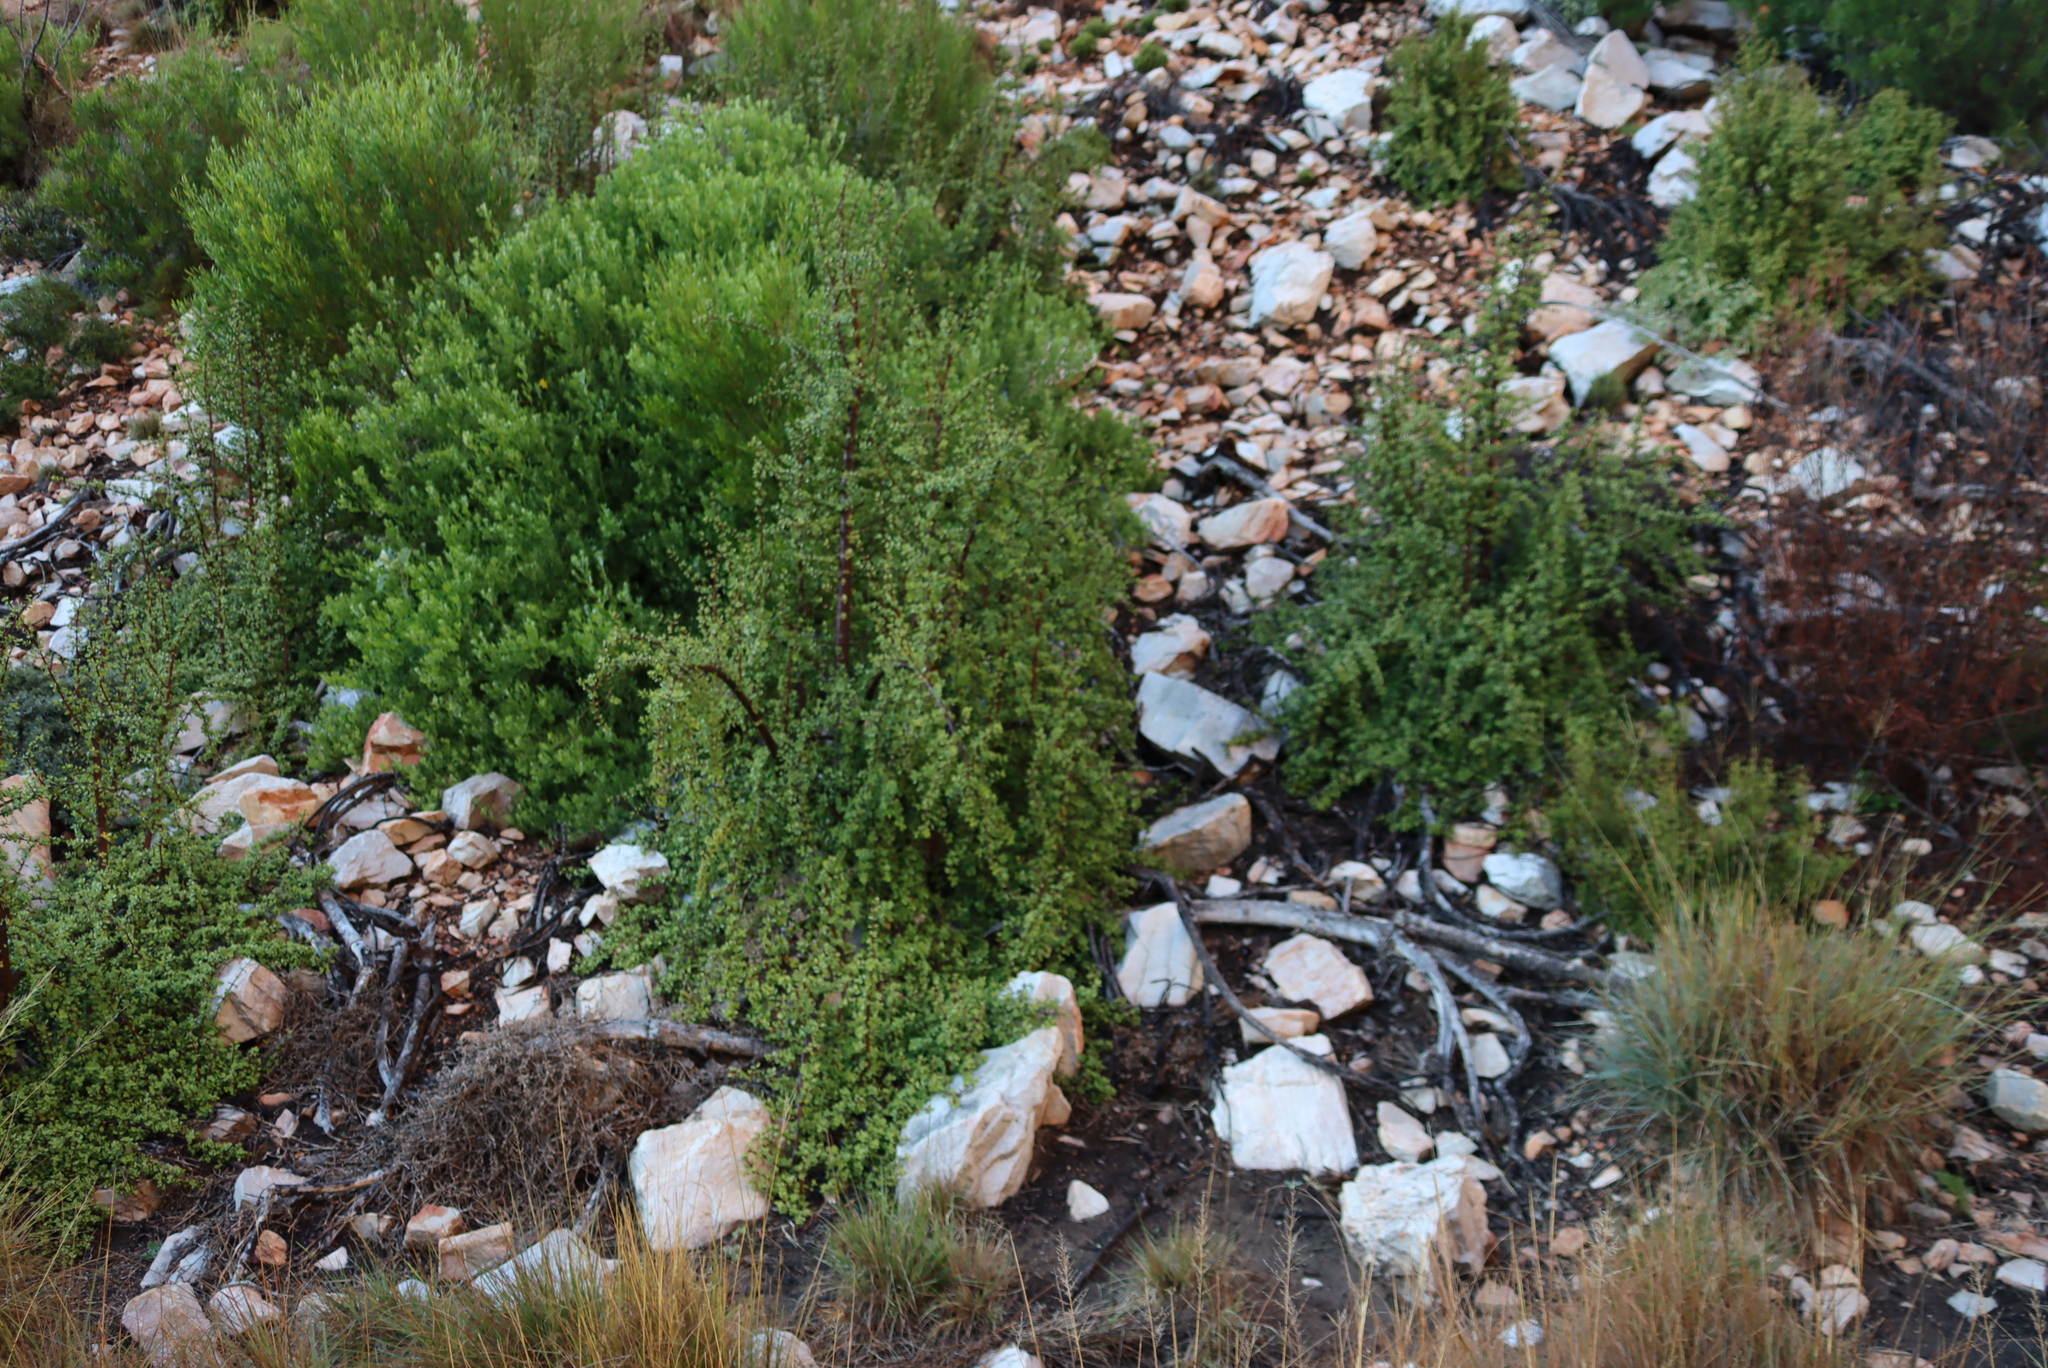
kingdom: Plantae
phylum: Tracheophyta
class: Magnoliopsida
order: Caryophyllales
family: Didiereaceae
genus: Portulacaria
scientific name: Portulacaria afra
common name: Elephant-bush
